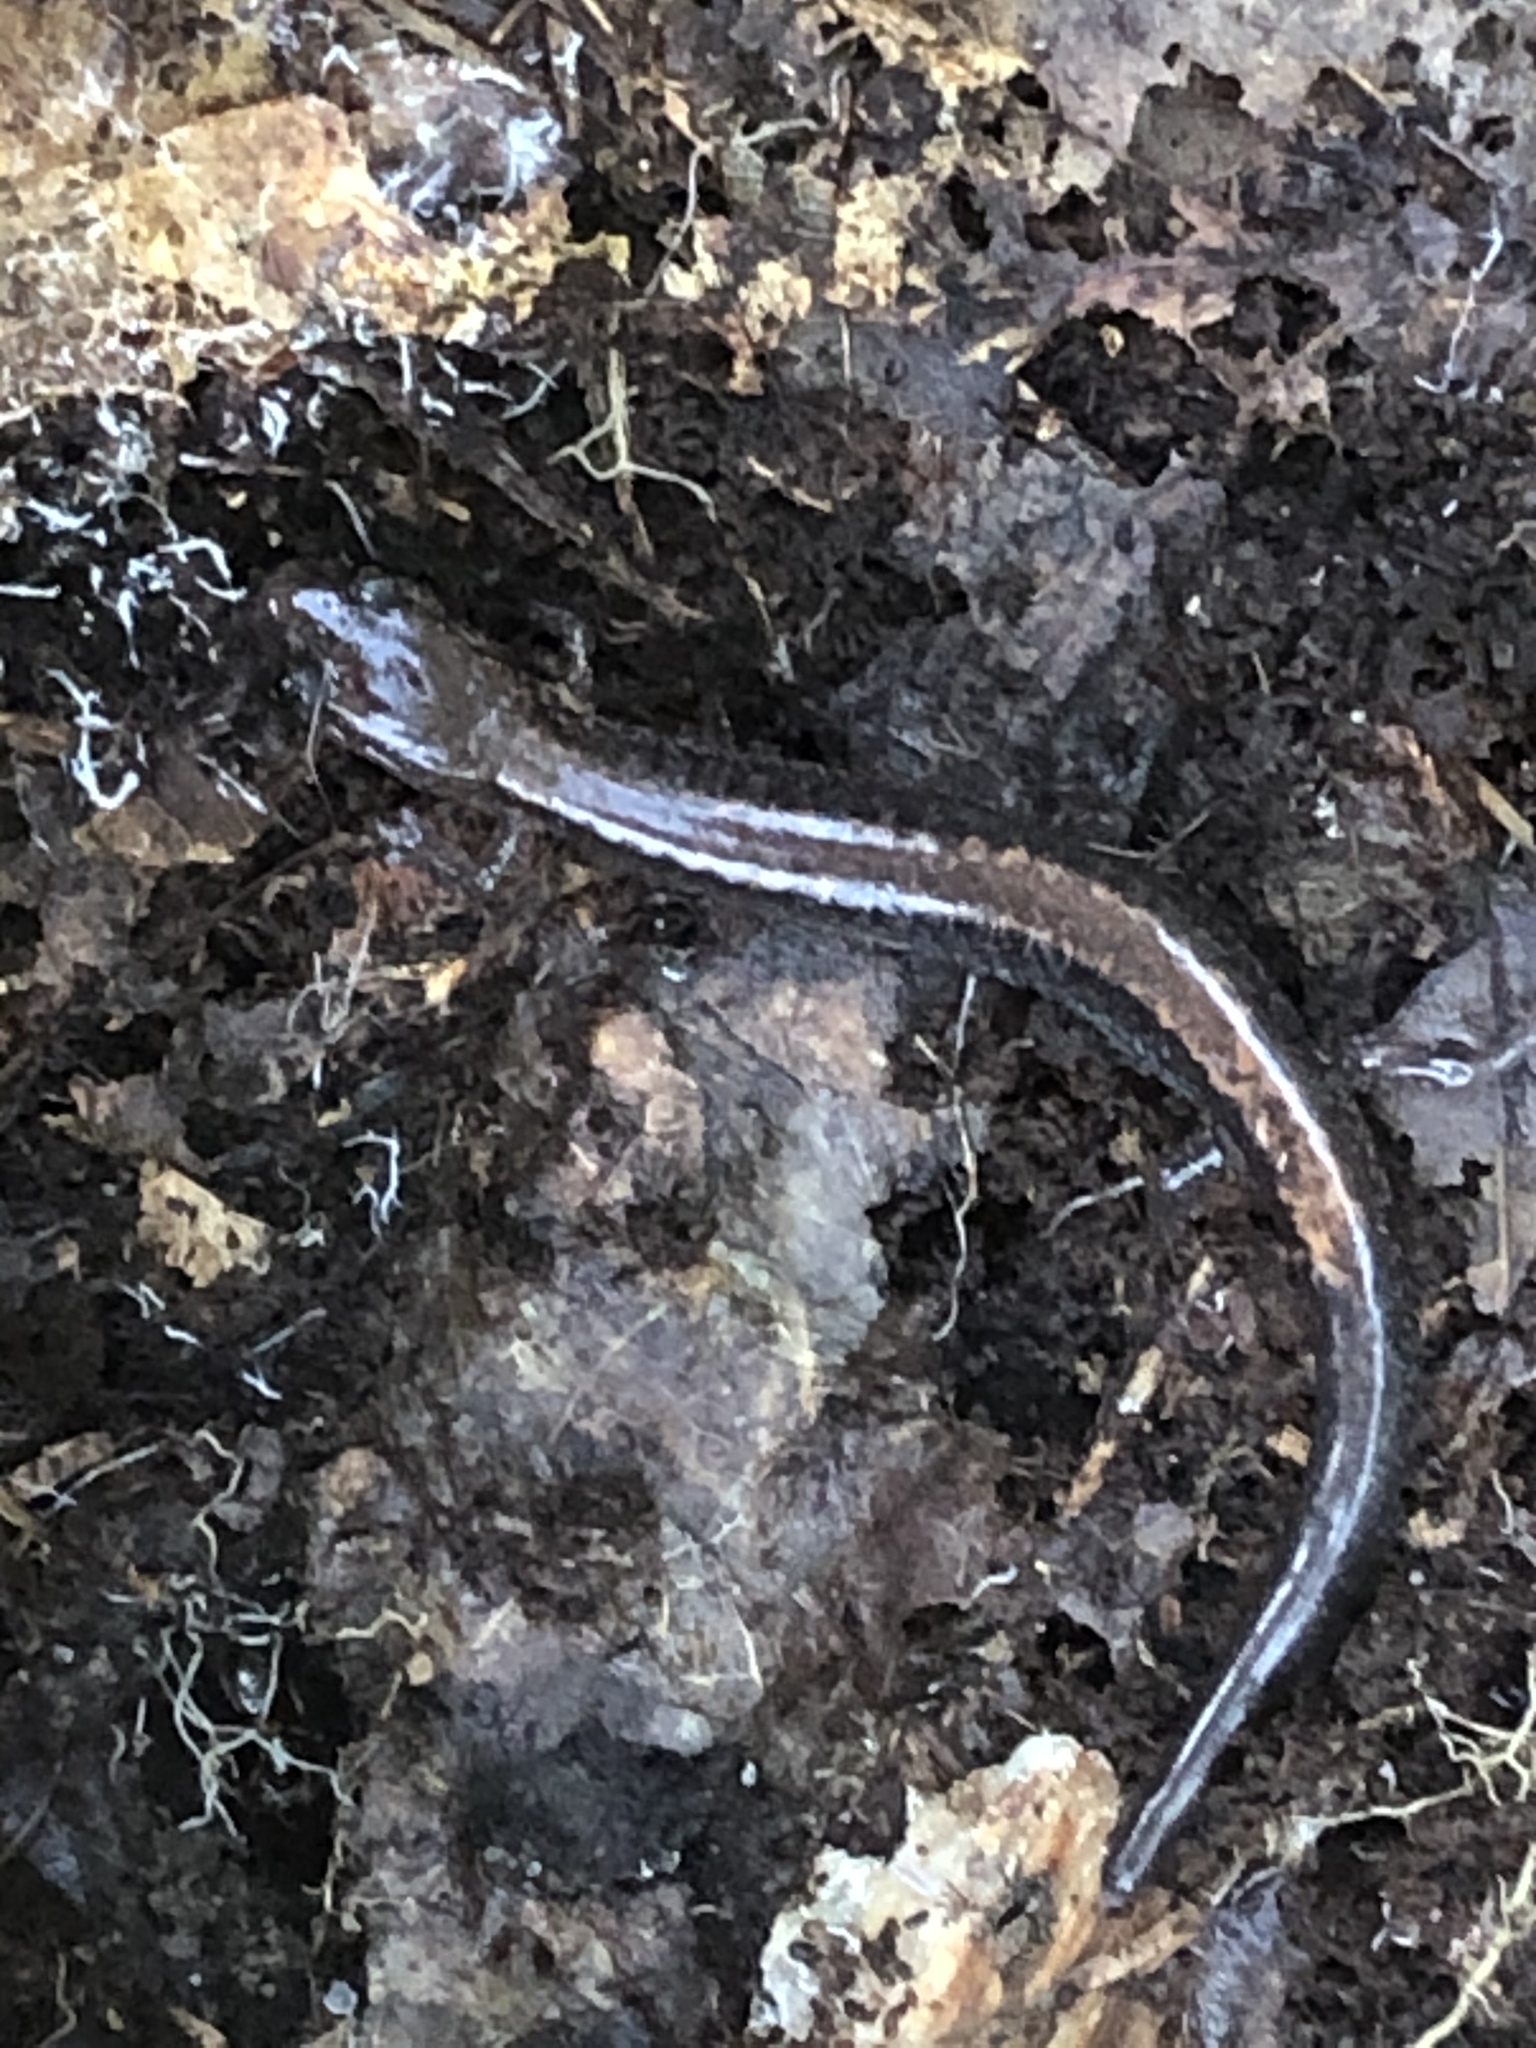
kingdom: Animalia
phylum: Chordata
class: Amphibia
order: Caudata
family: Plethodontidae
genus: Plethodon
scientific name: Plethodon cinereus
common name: Redback salamander
